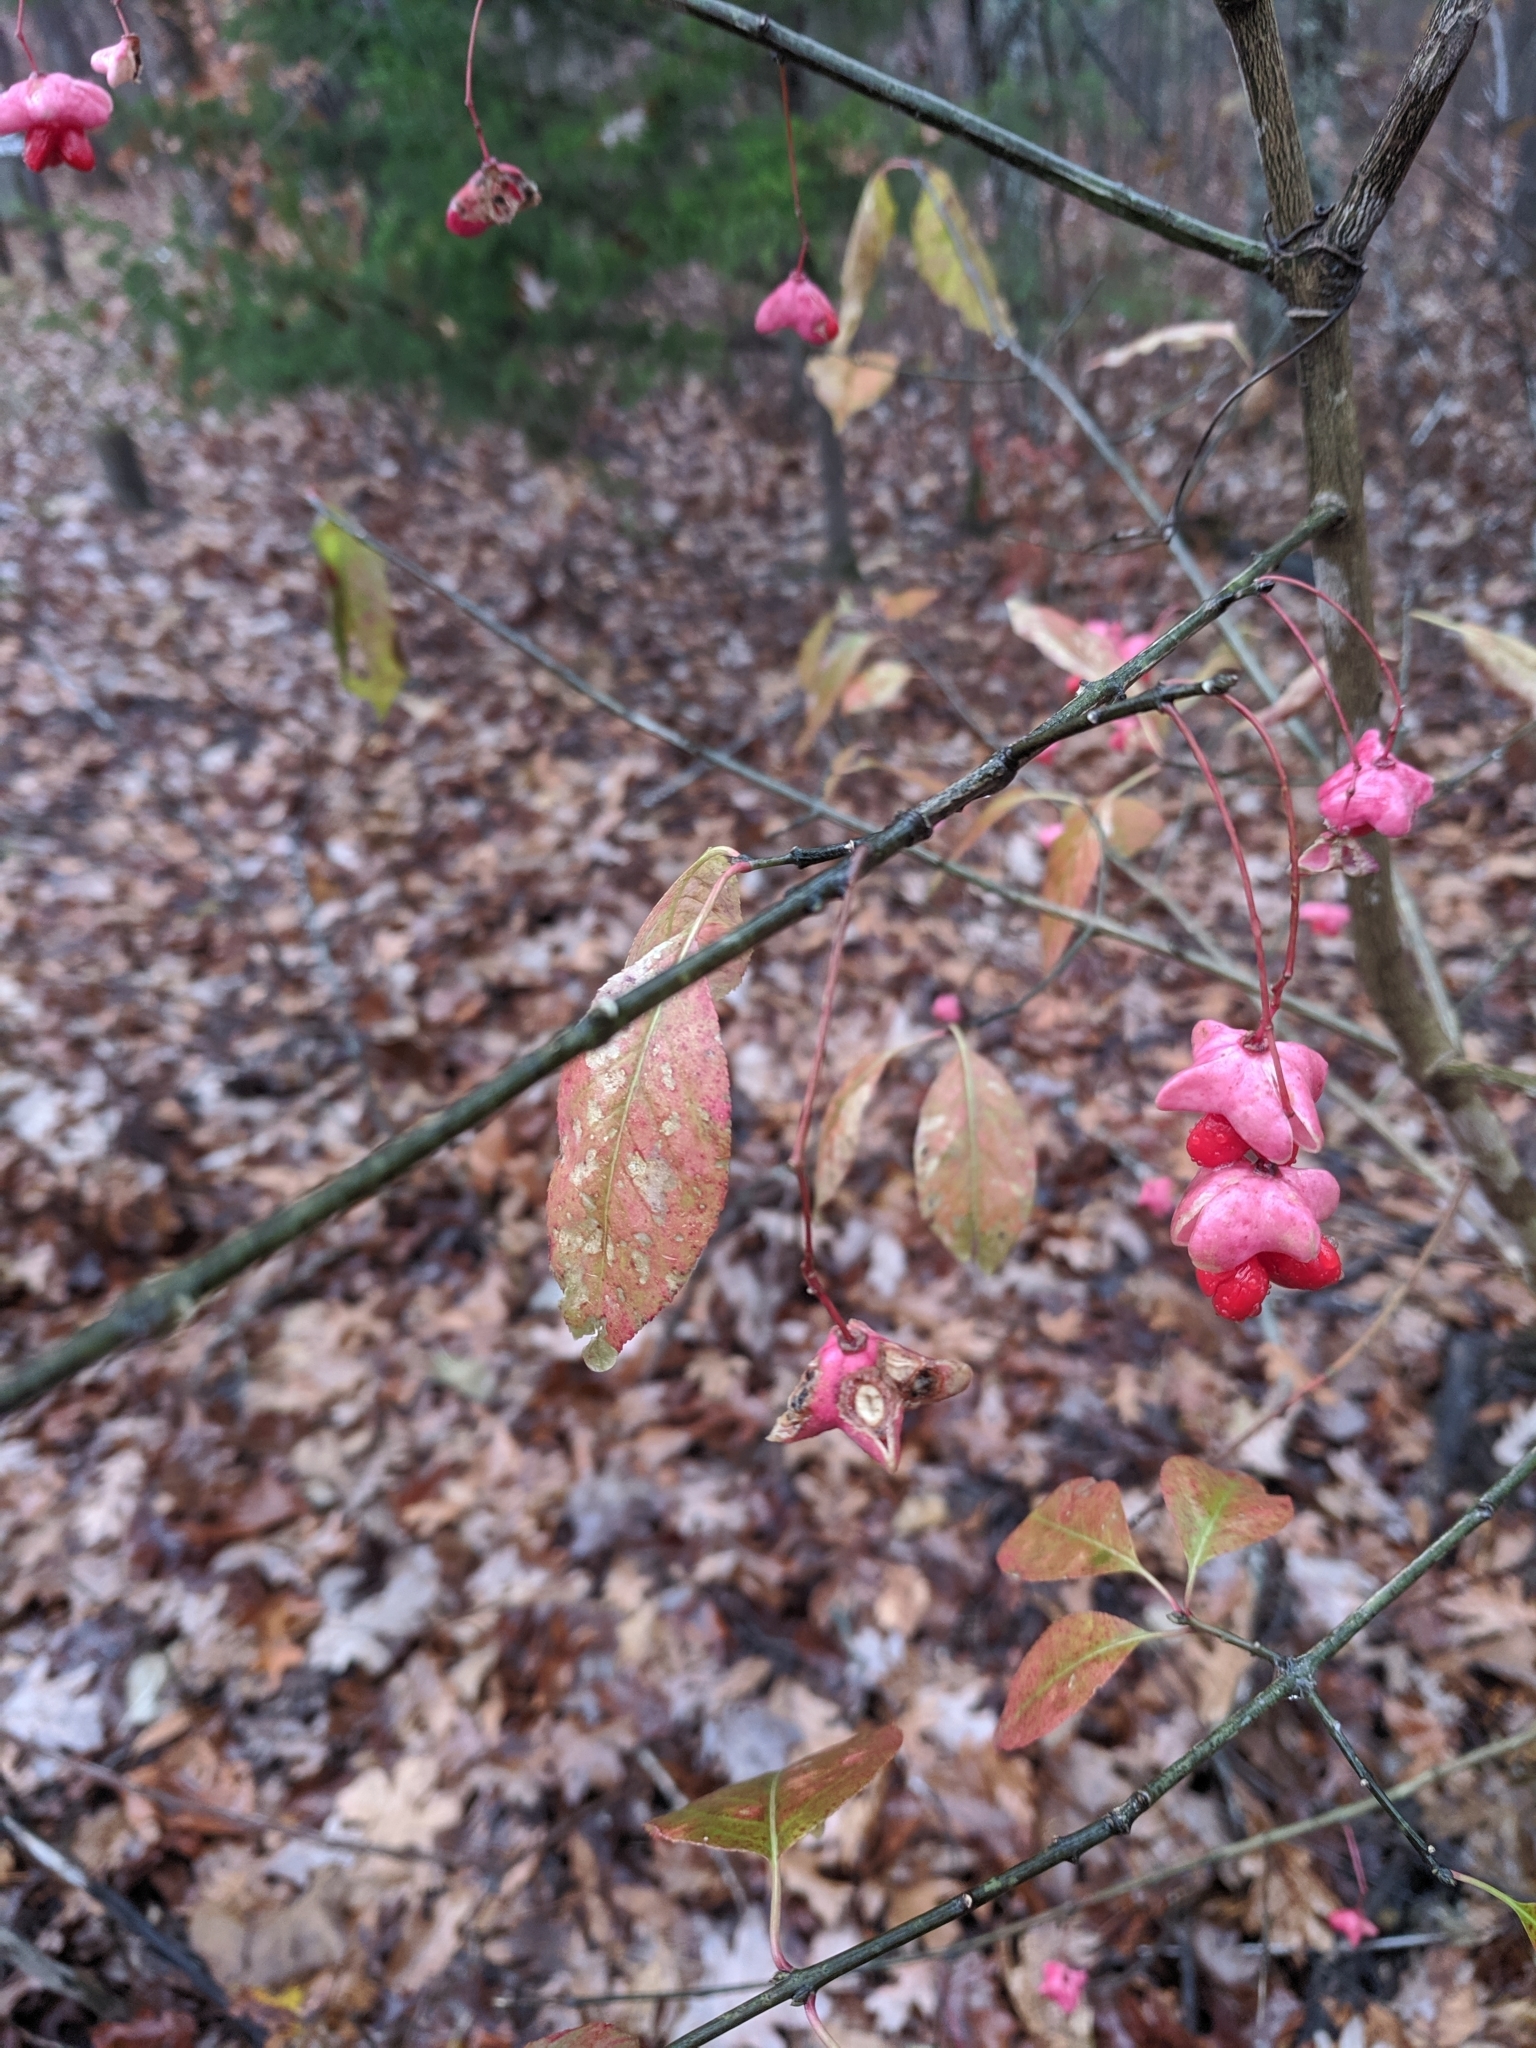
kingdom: Plantae
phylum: Tracheophyta
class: Magnoliopsida
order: Celastrales
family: Celastraceae
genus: Euonymus
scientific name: Euonymus atropurpureus
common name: Eastern wahoo
